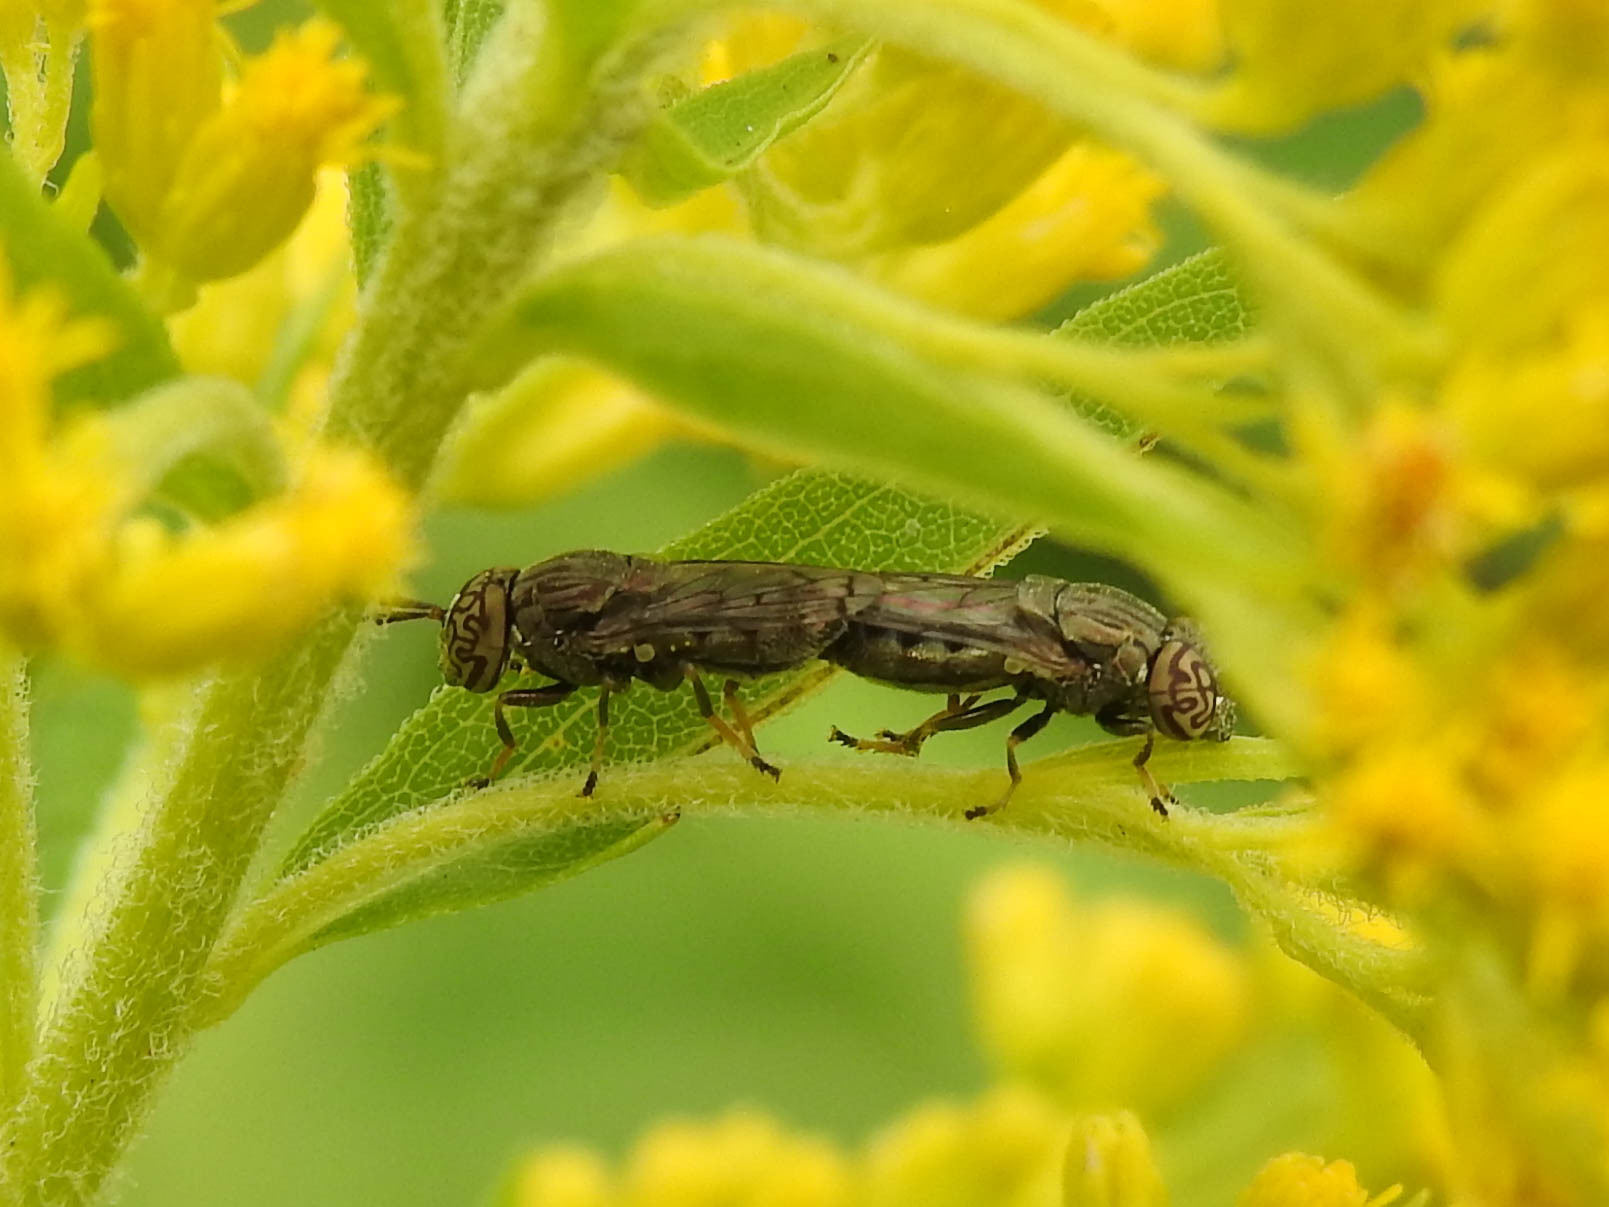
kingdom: Animalia
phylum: Arthropoda
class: Insecta
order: Diptera
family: Syrphidae
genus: Orthonevra
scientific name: Orthonevra nitida
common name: Wavy mucksucker
